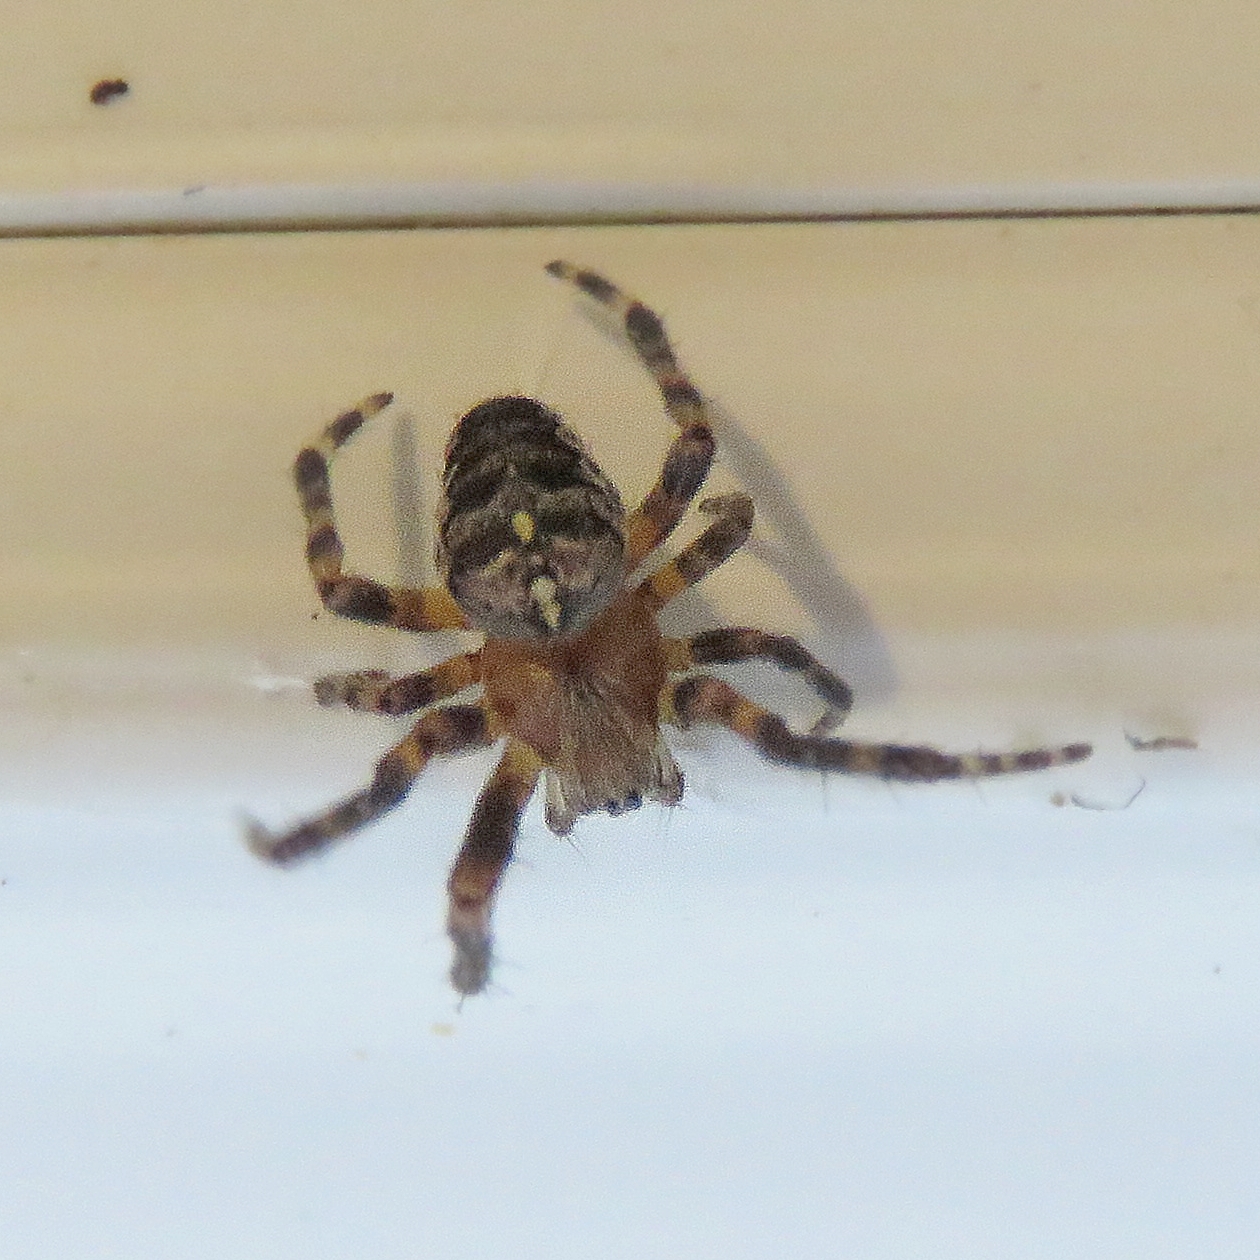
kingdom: Animalia
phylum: Arthropoda
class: Arachnida
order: Araneae
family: Araneidae
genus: Araneus
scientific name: Araneus diadematus
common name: Cross orbweaver
